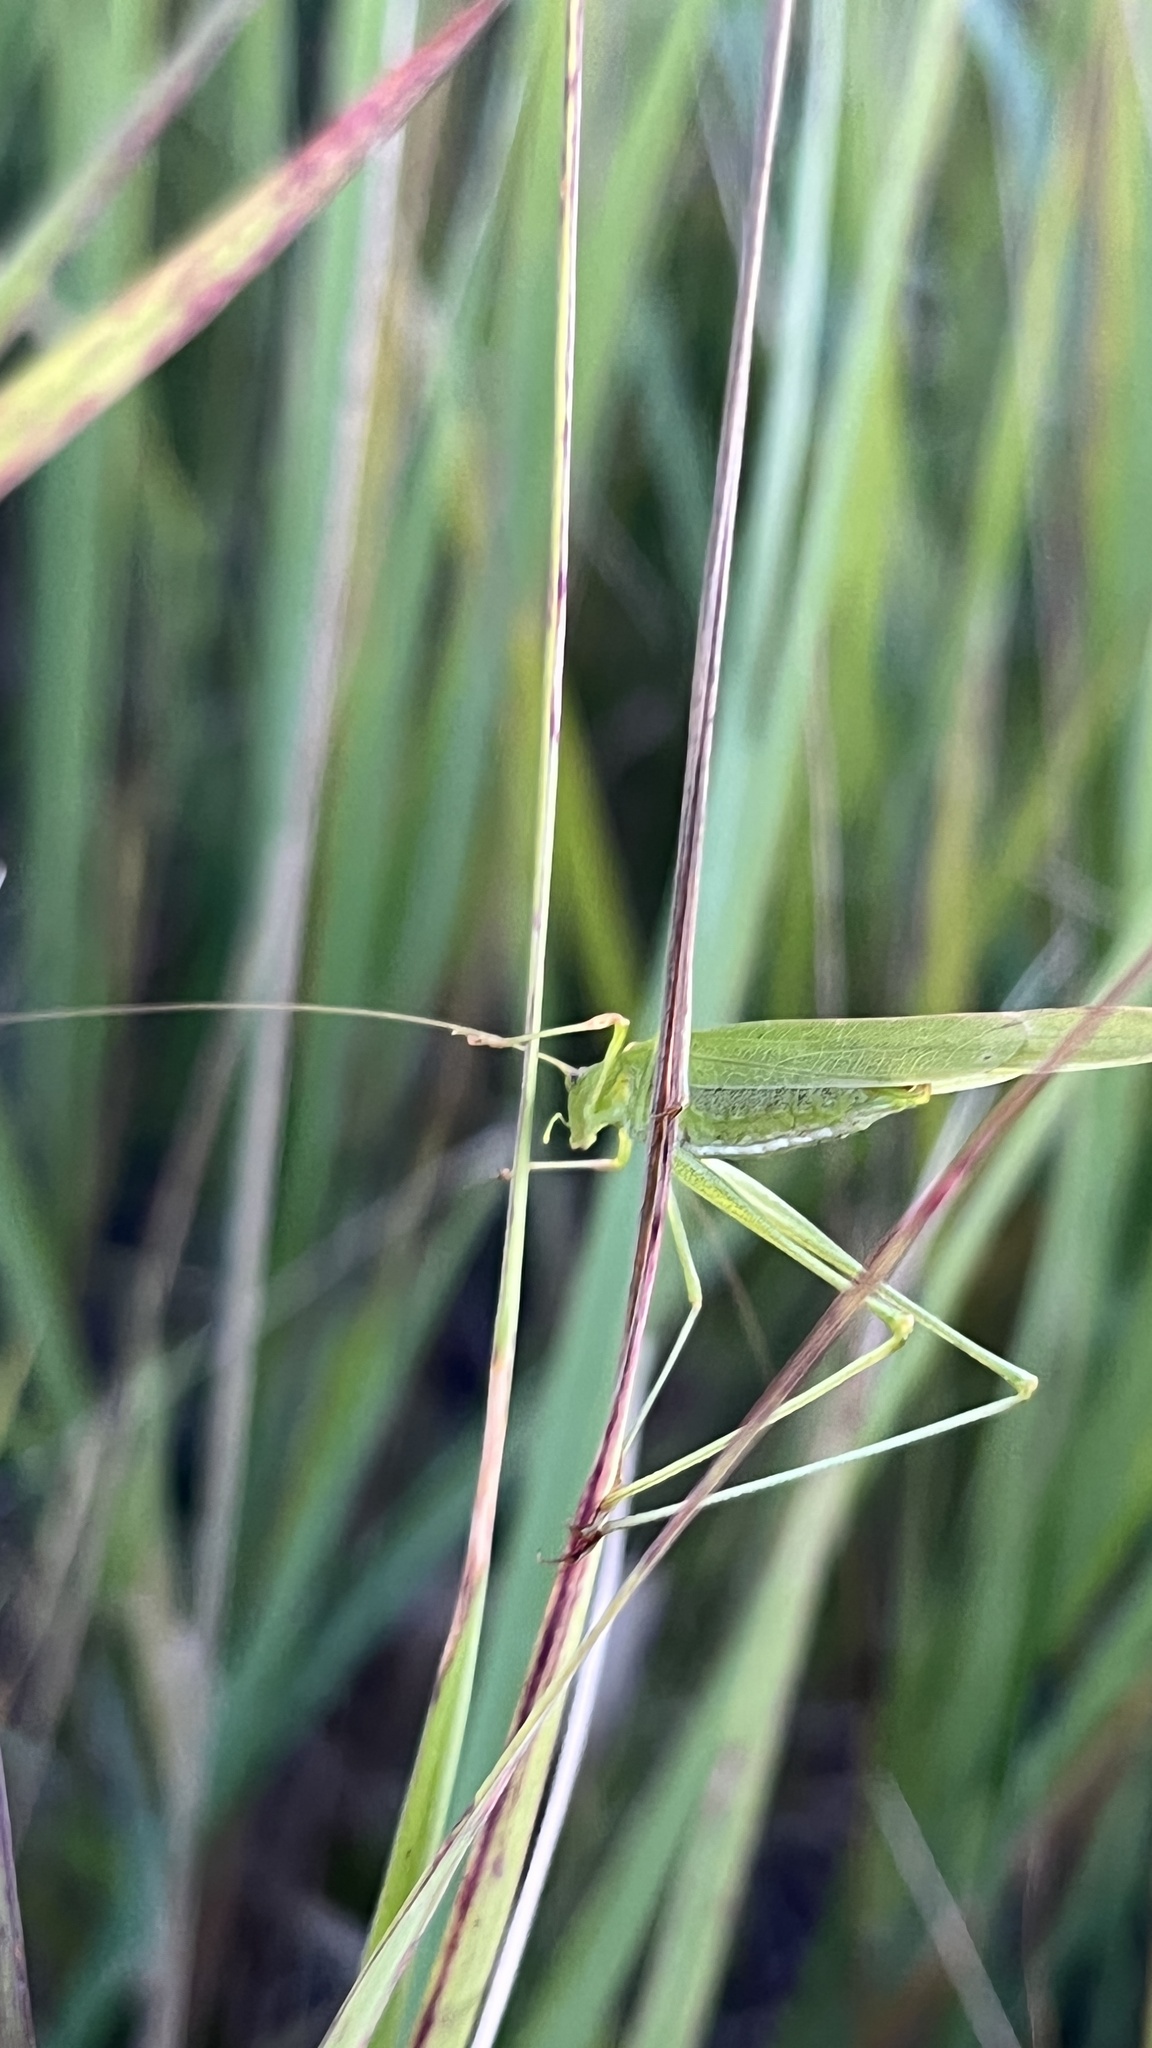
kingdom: Animalia
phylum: Arthropoda
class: Insecta
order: Orthoptera
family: Tettigoniidae
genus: Phaneroptera
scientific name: Phaneroptera falcata
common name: Sickle-bearing bush-cricket
